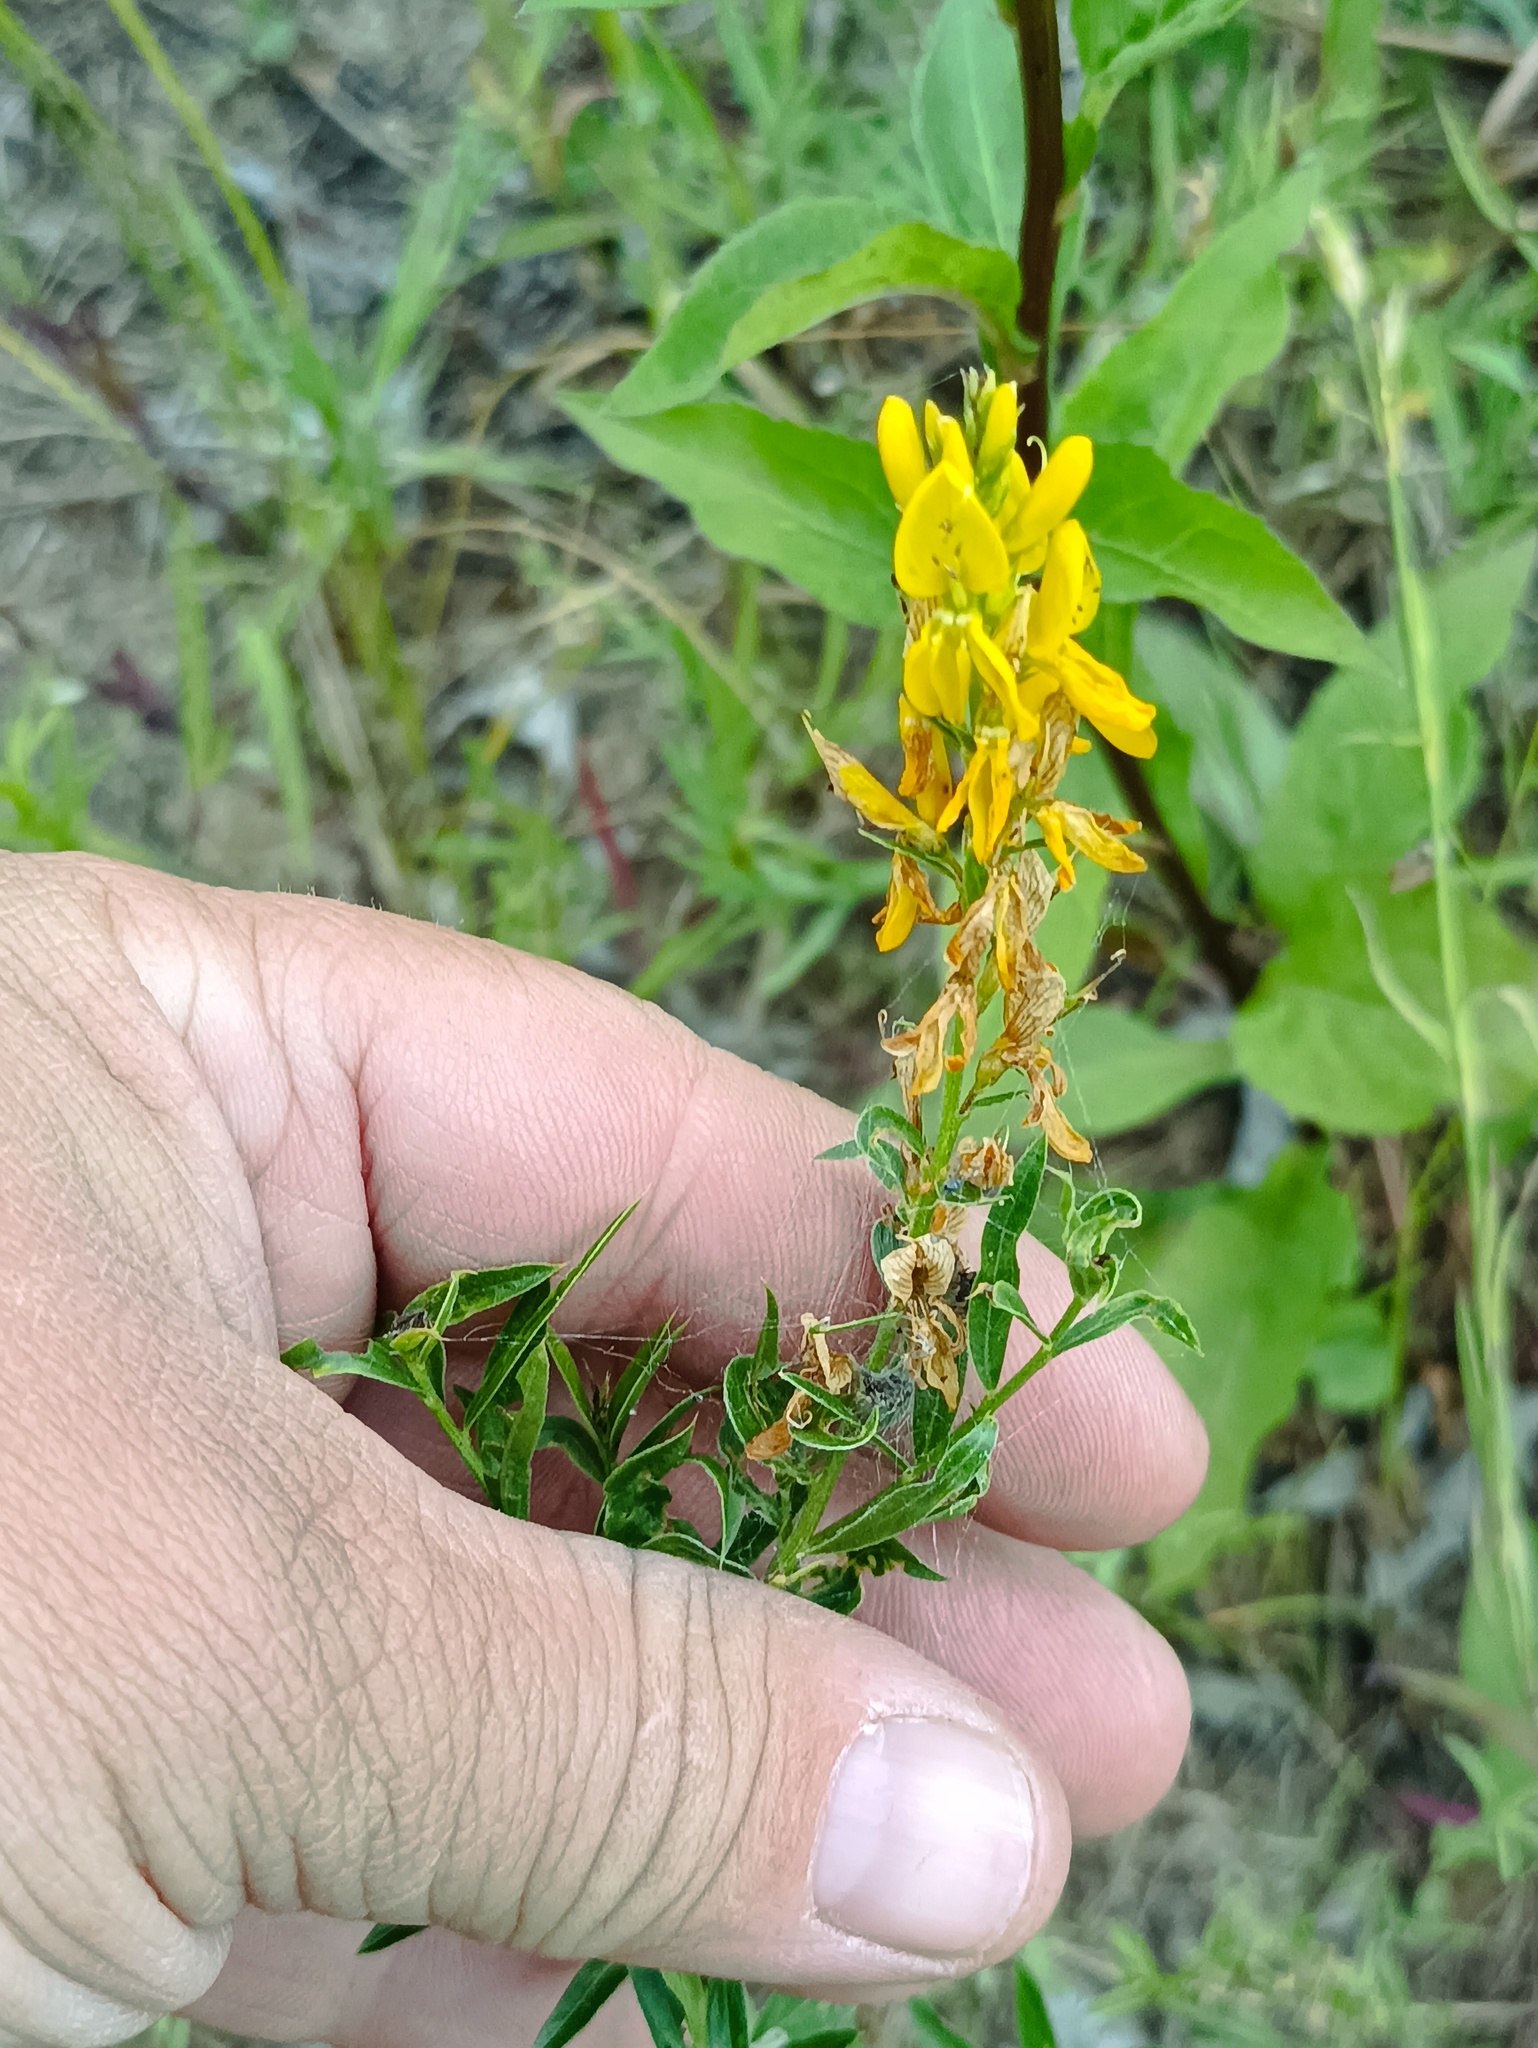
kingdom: Plantae
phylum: Tracheophyta
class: Magnoliopsida
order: Fabales
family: Fabaceae
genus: Genista
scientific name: Genista tinctoria
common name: Dyer's greenweed
